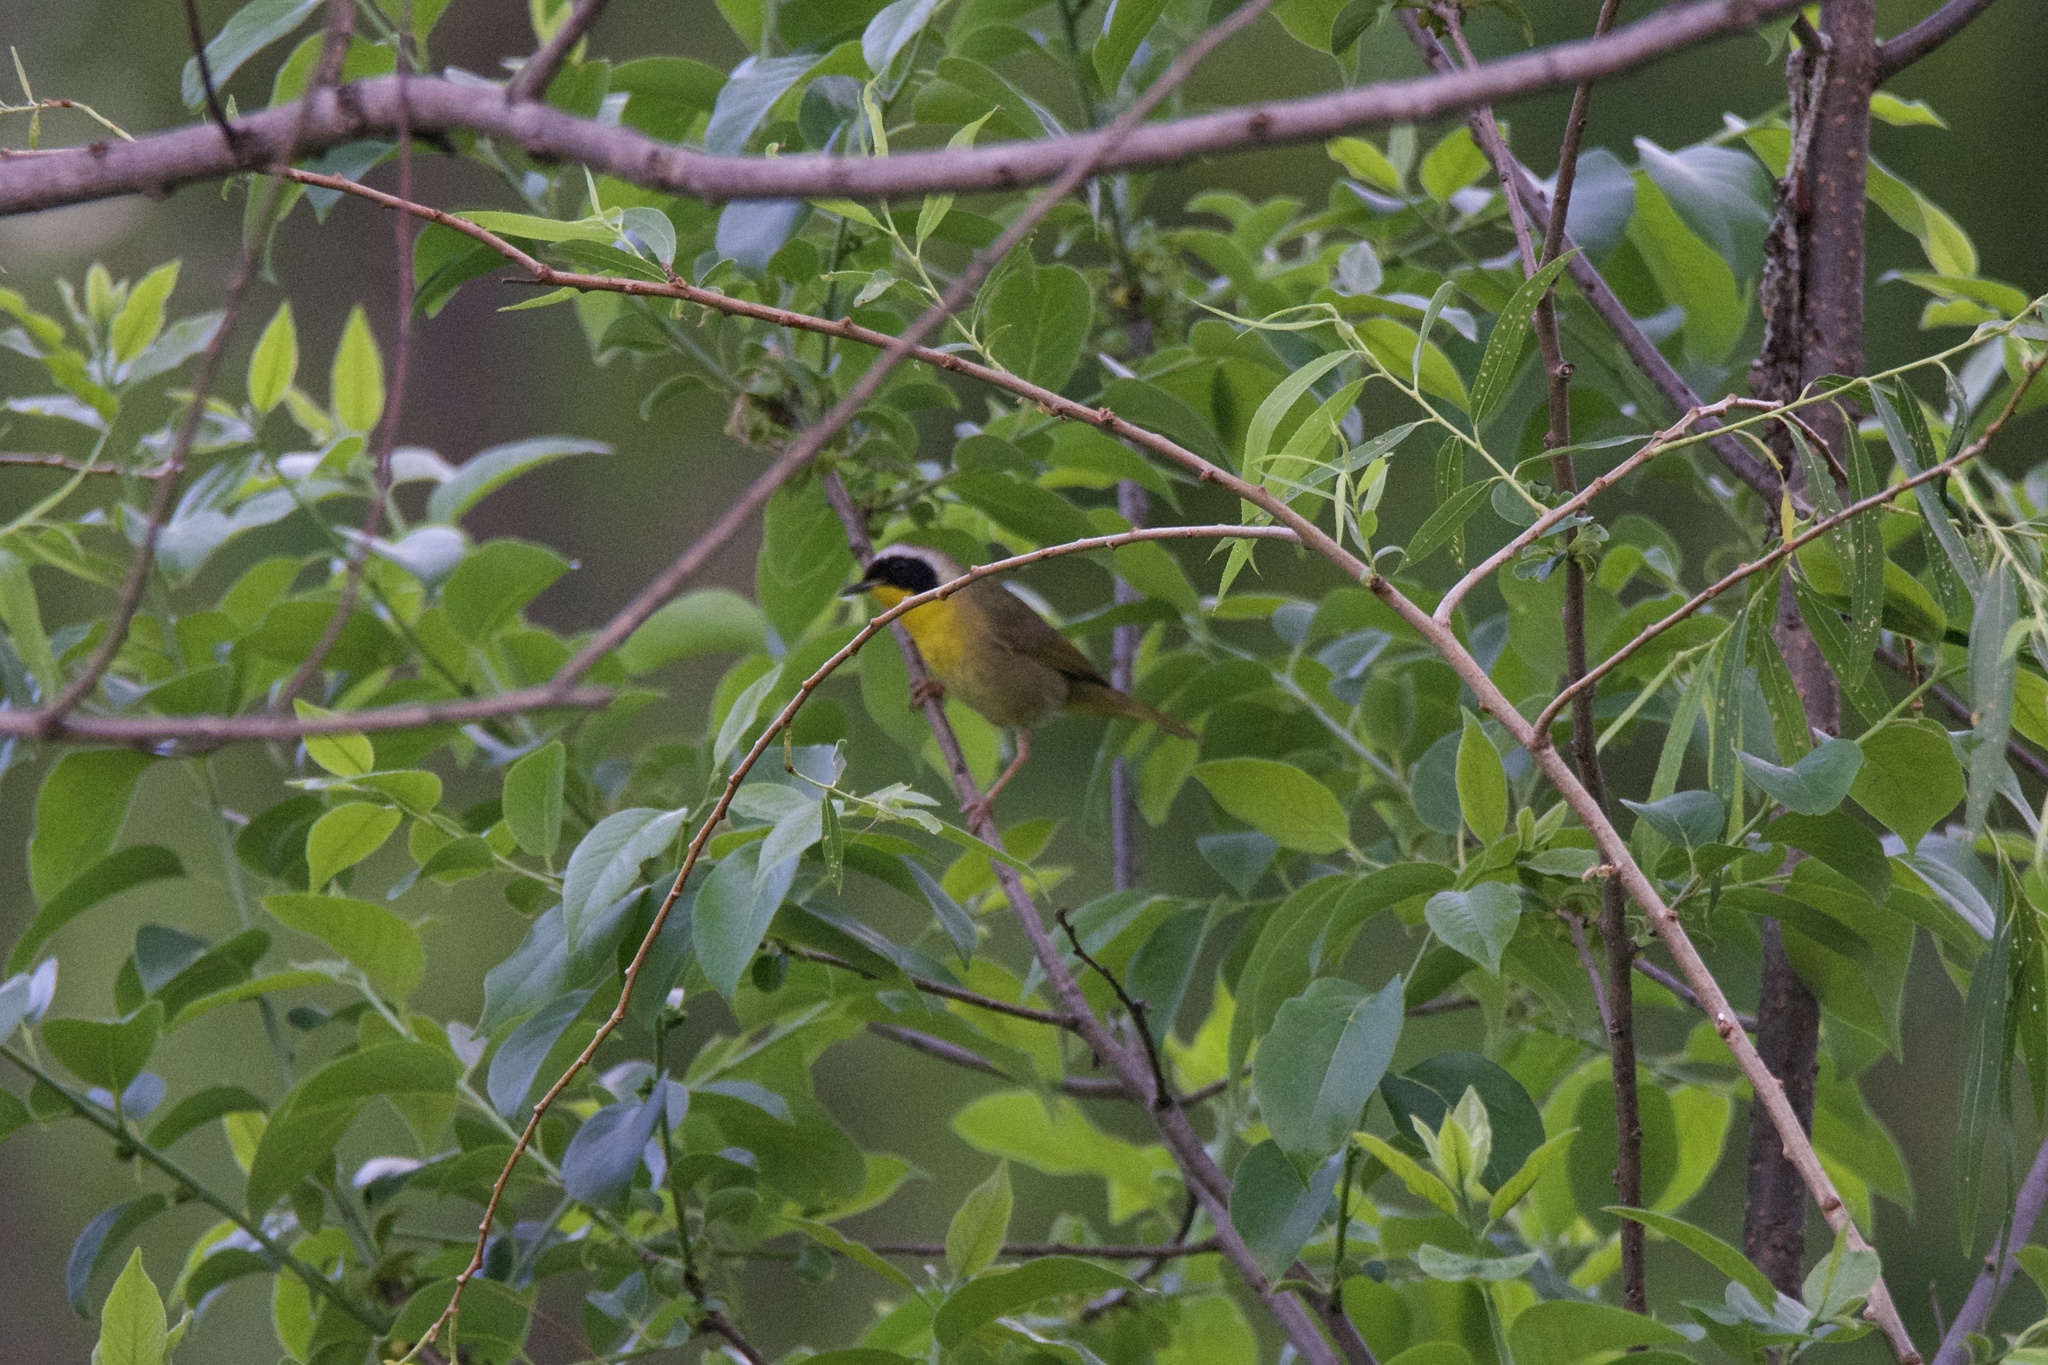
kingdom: Animalia
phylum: Chordata
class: Aves
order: Passeriformes
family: Parulidae
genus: Geothlypis
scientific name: Geothlypis trichas
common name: Common yellowthroat
